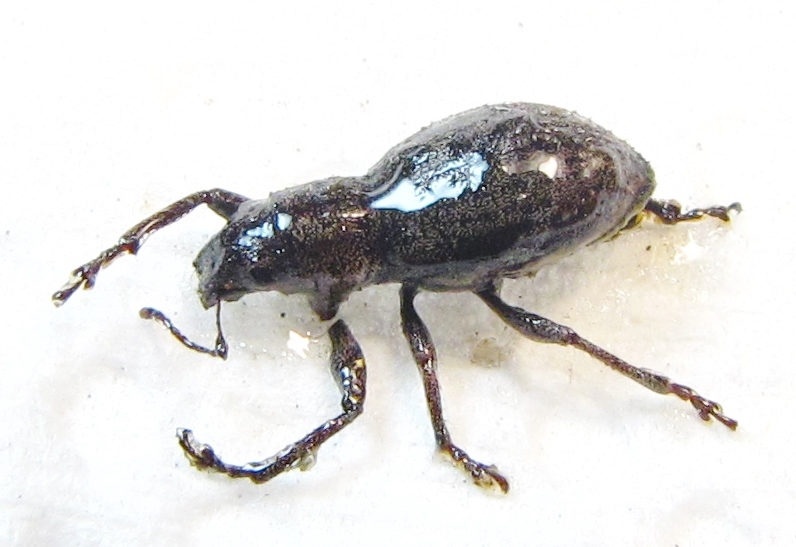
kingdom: Animalia
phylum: Arthropoda
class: Insecta
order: Coleoptera
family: Curculionidae
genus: Naupactus
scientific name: Naupactus cervinus
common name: Fuller rose beetle
